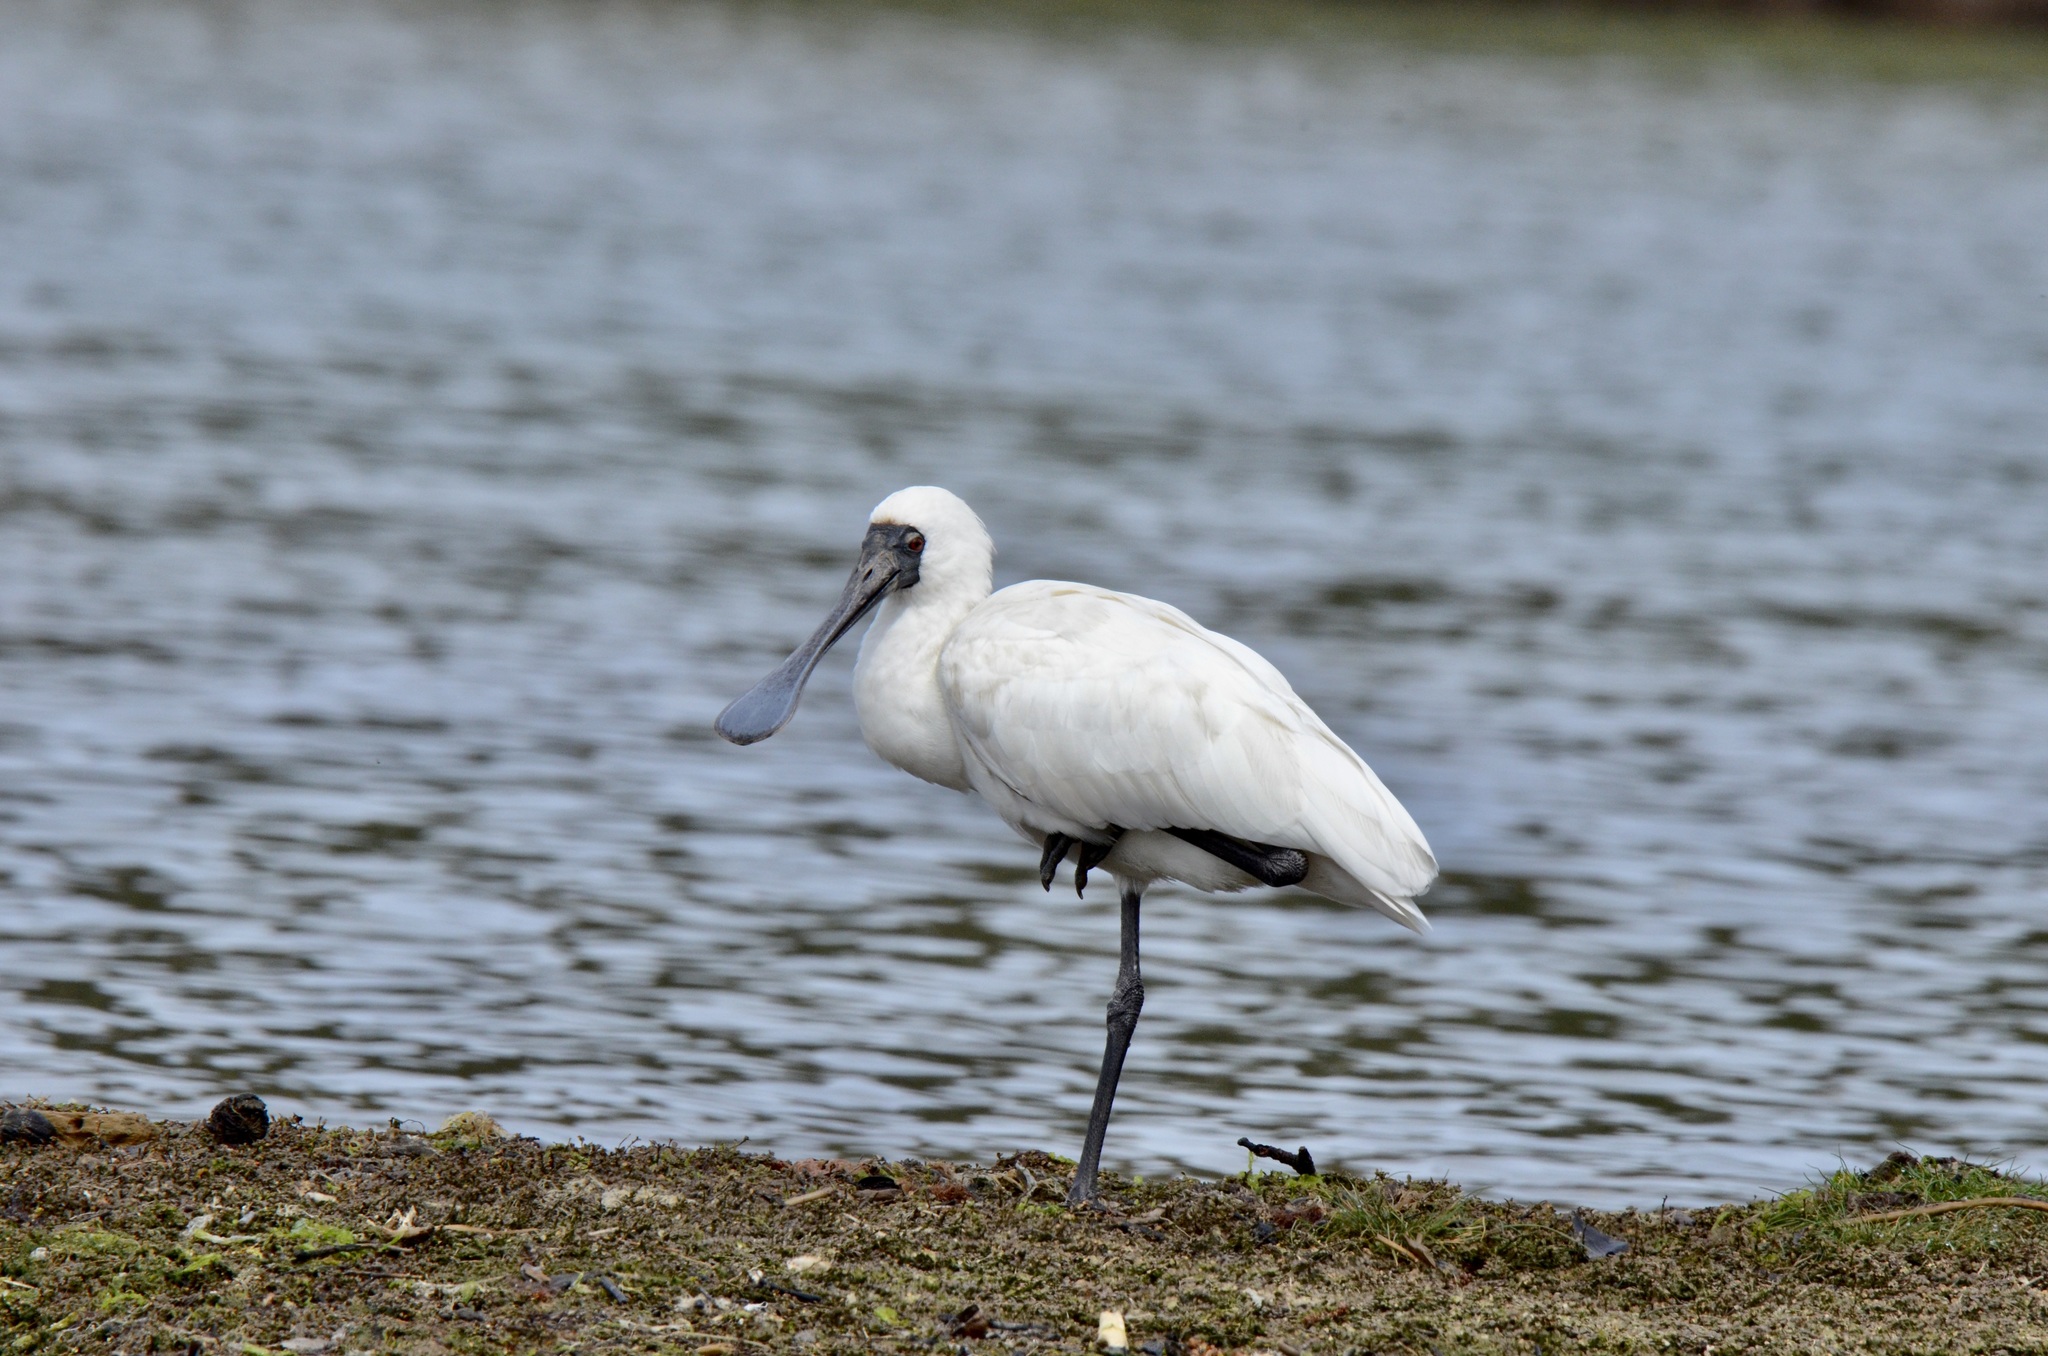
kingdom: Animalia
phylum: Chordata
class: Aves
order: Pelecaniformes
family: Threskiornithidae
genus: Platalea
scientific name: Platalea regia
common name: Royal spoonbill
